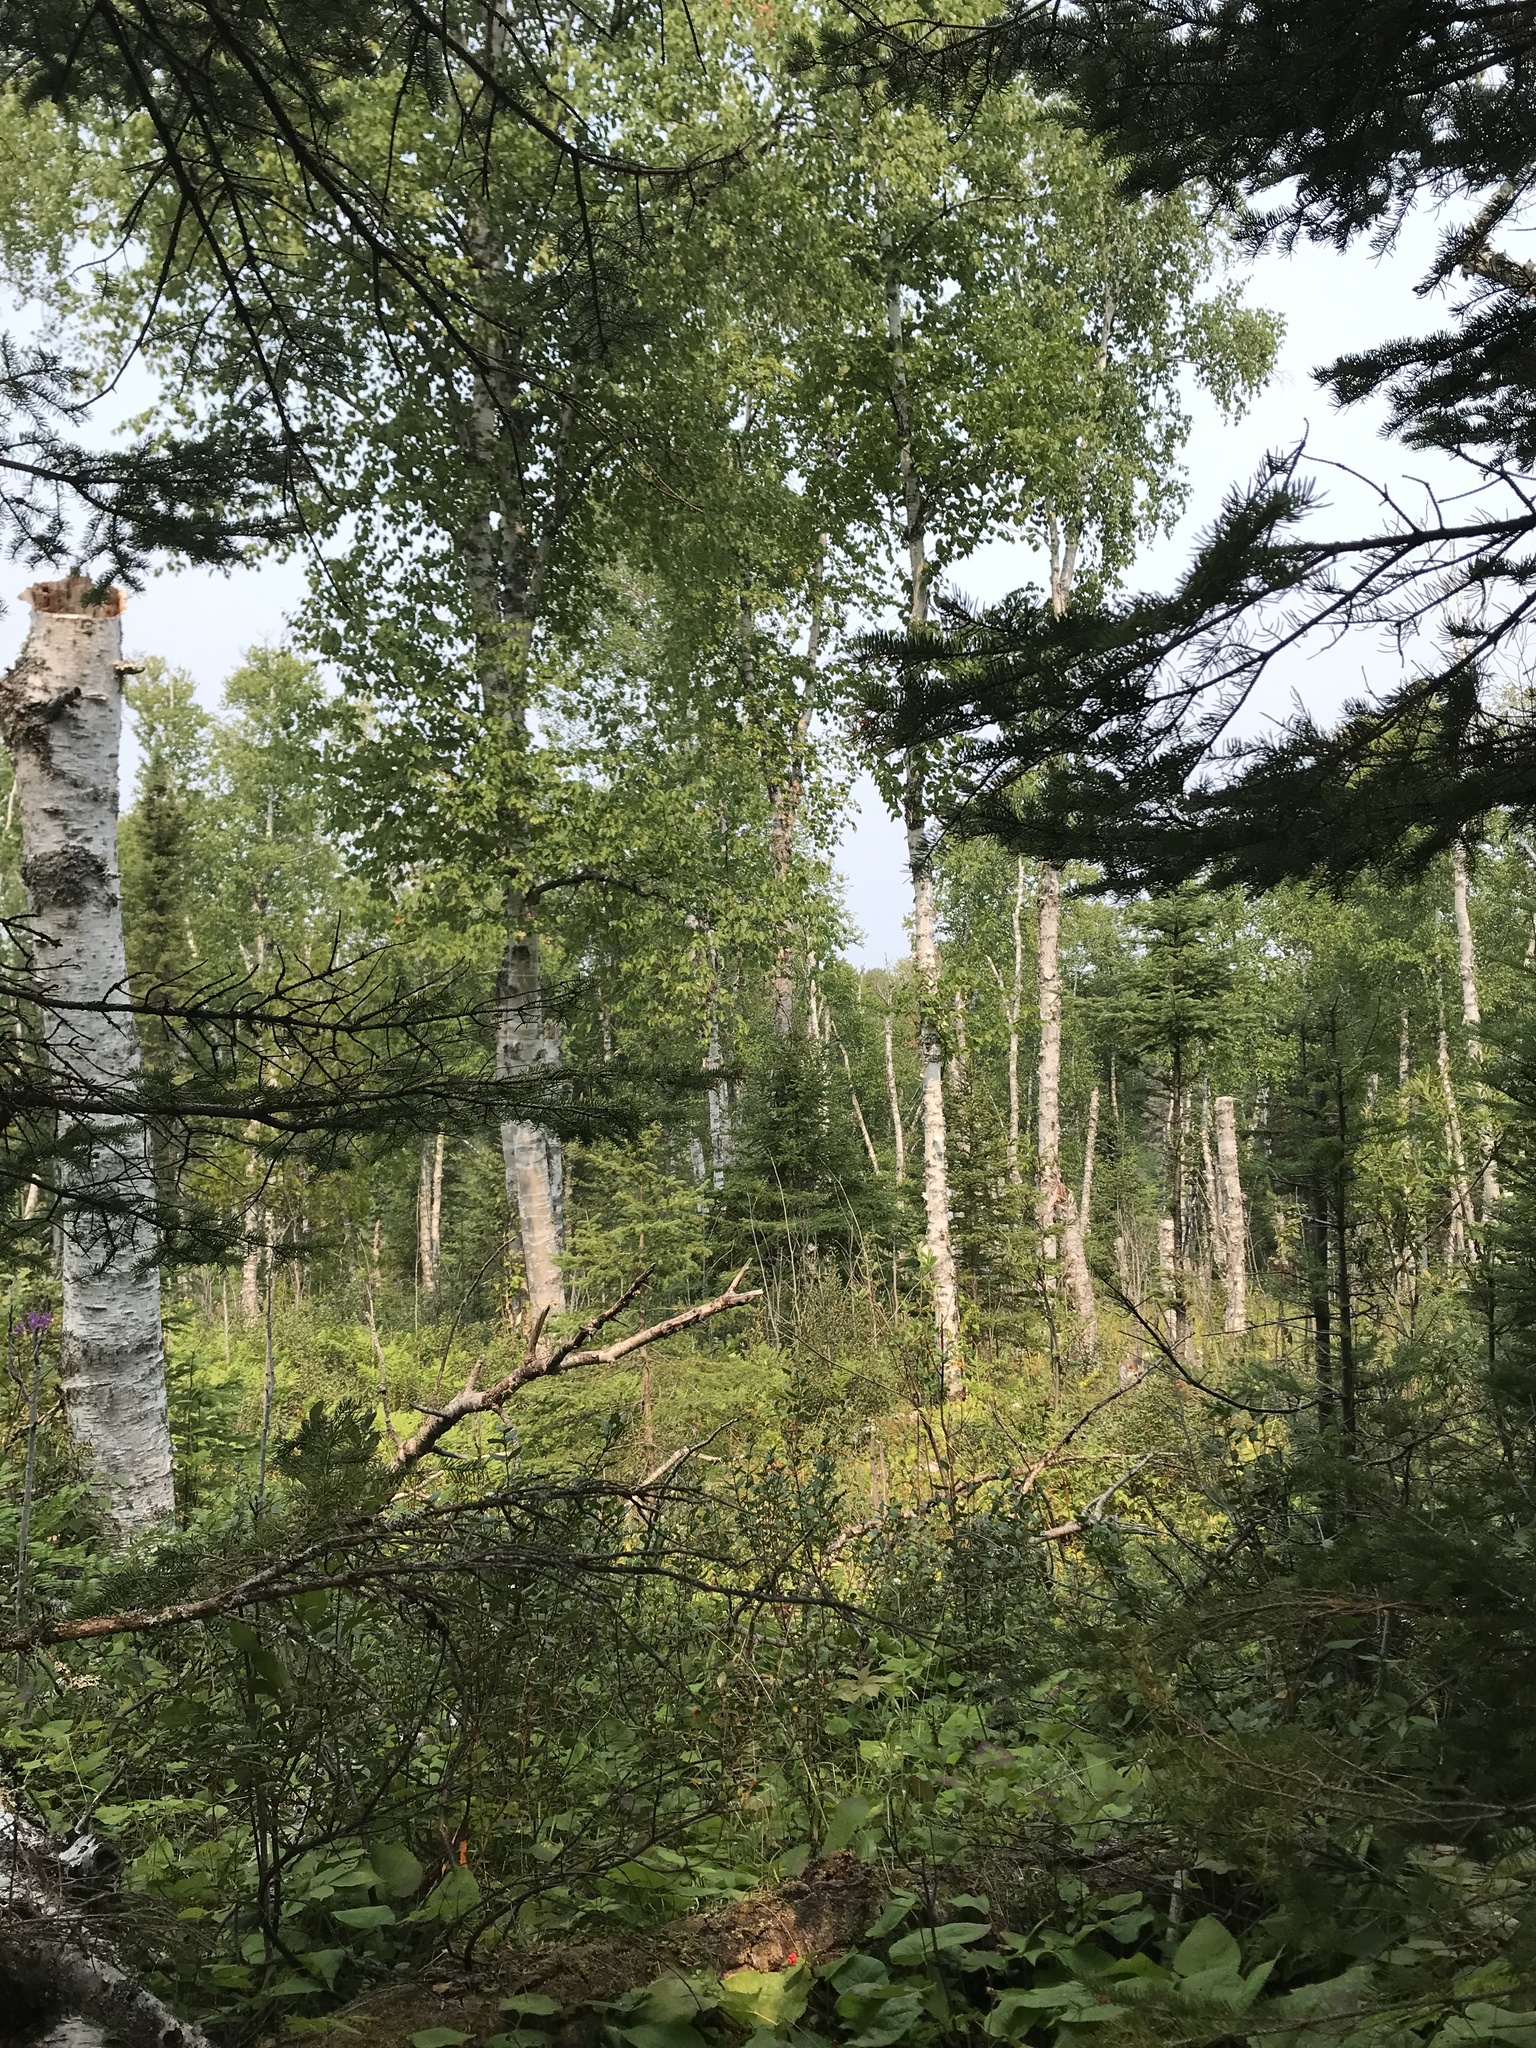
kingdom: Plantae
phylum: Tracheophyta
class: Magnoliopsida
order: Fagales
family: Betulaceae
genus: Betula
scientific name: Betula papyrifera
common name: Paper birch
